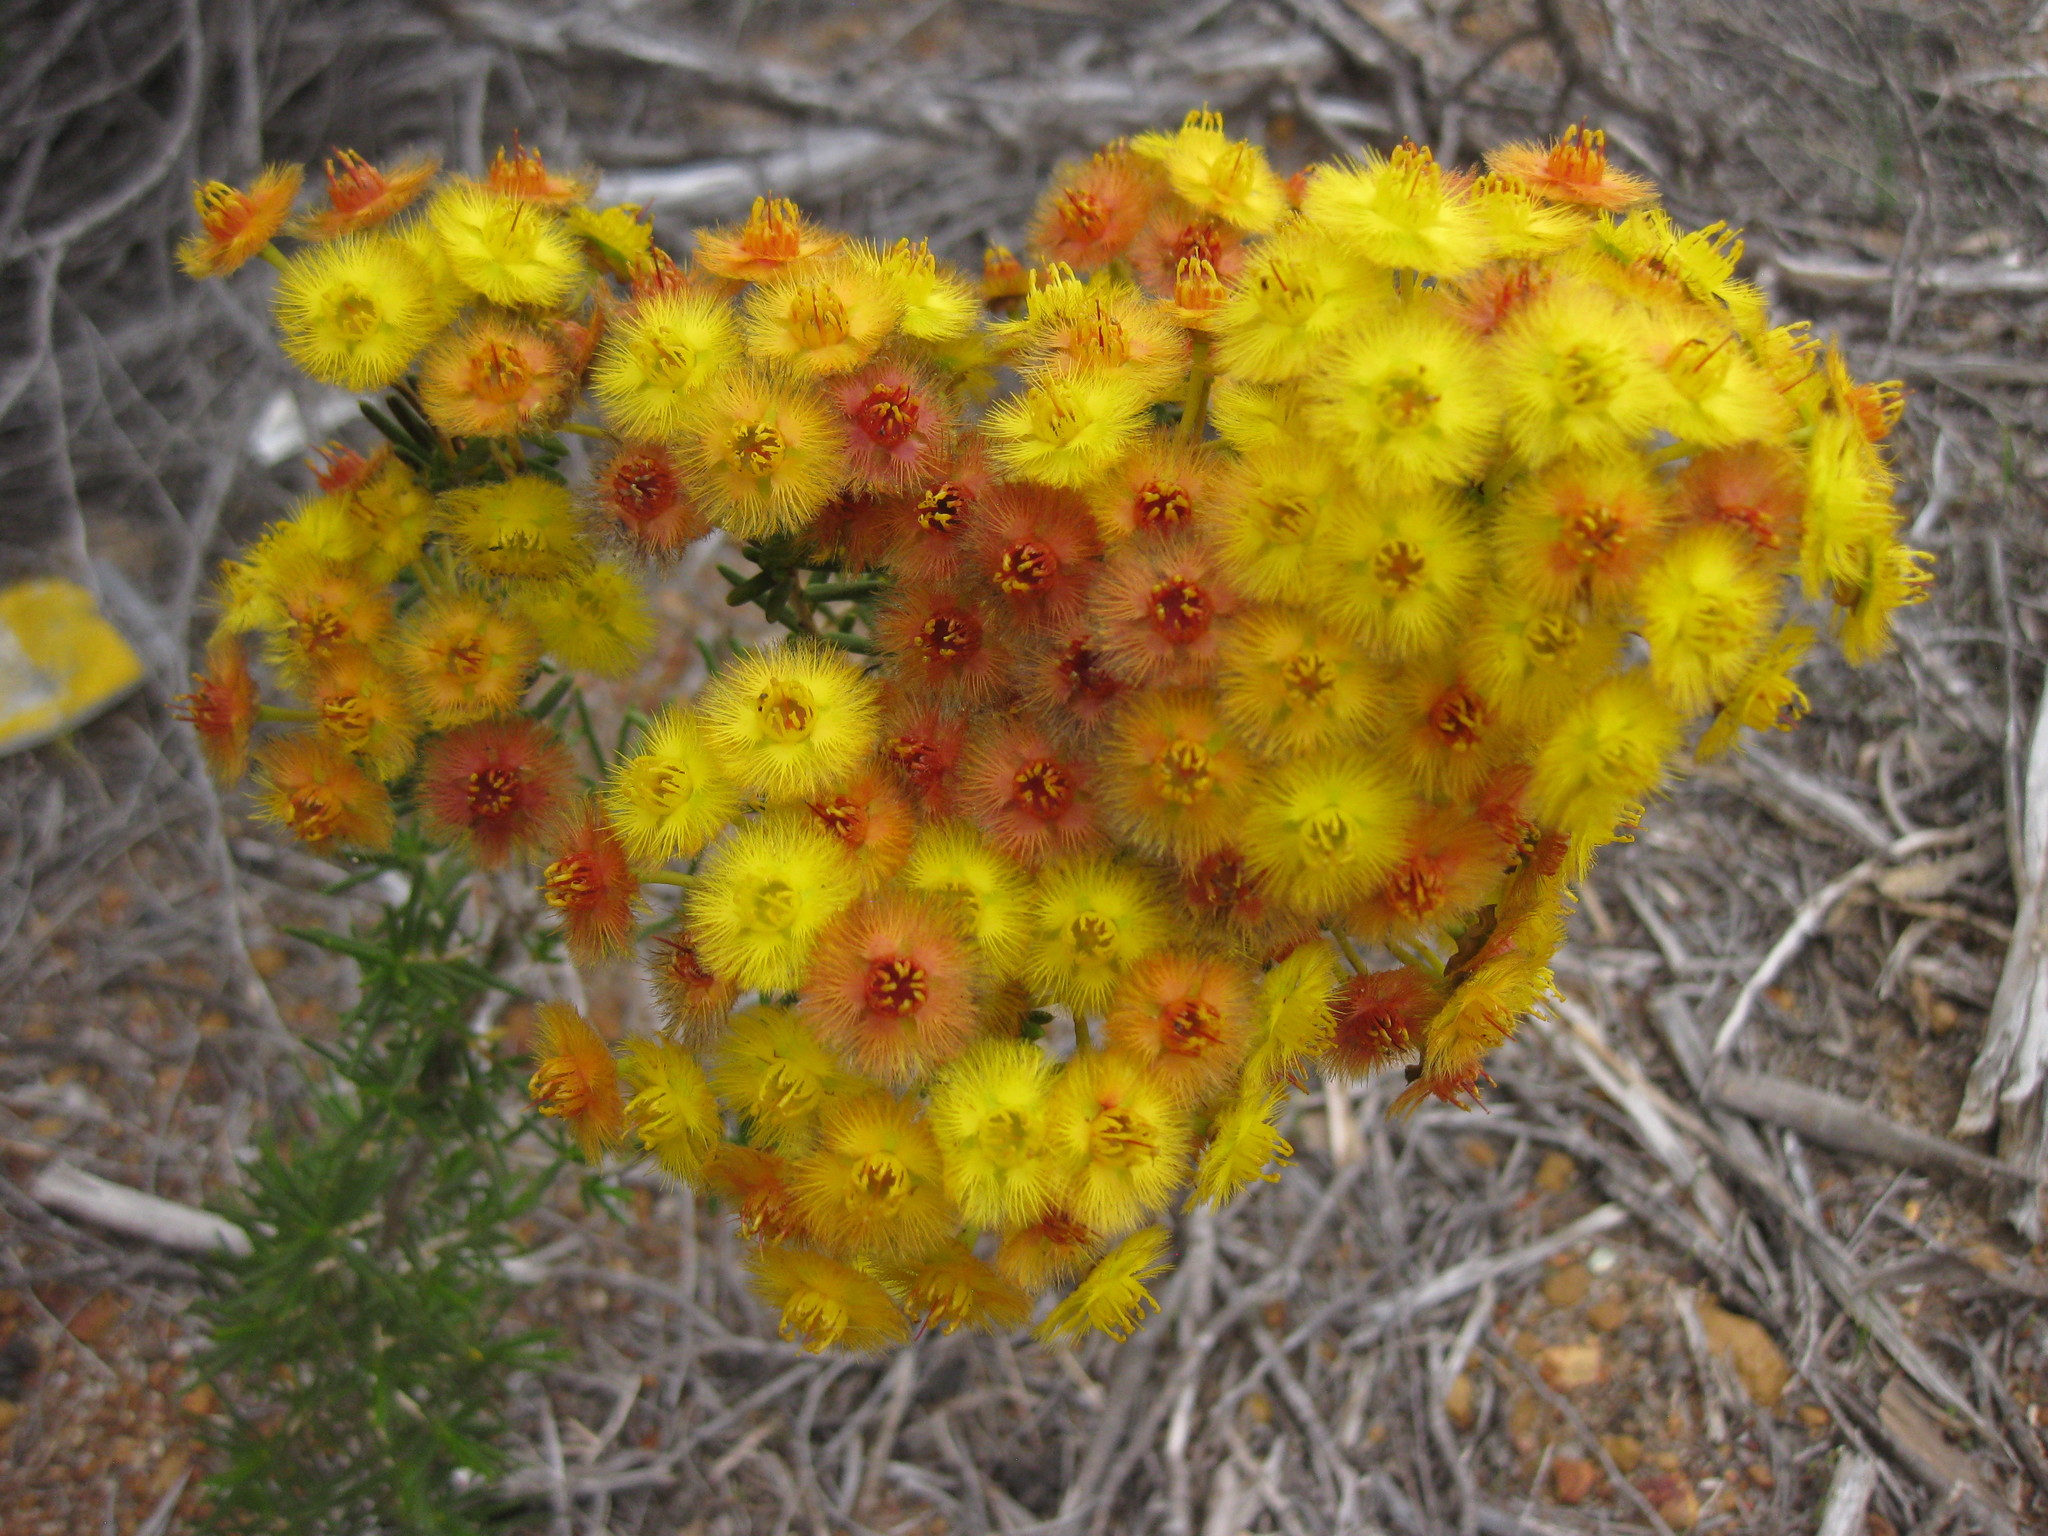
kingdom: Plantae
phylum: Tracheophyta
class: Magnoliopsida
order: Myrtales
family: Myrtaceae
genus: Verticordia
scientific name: Verticordia nobilis
